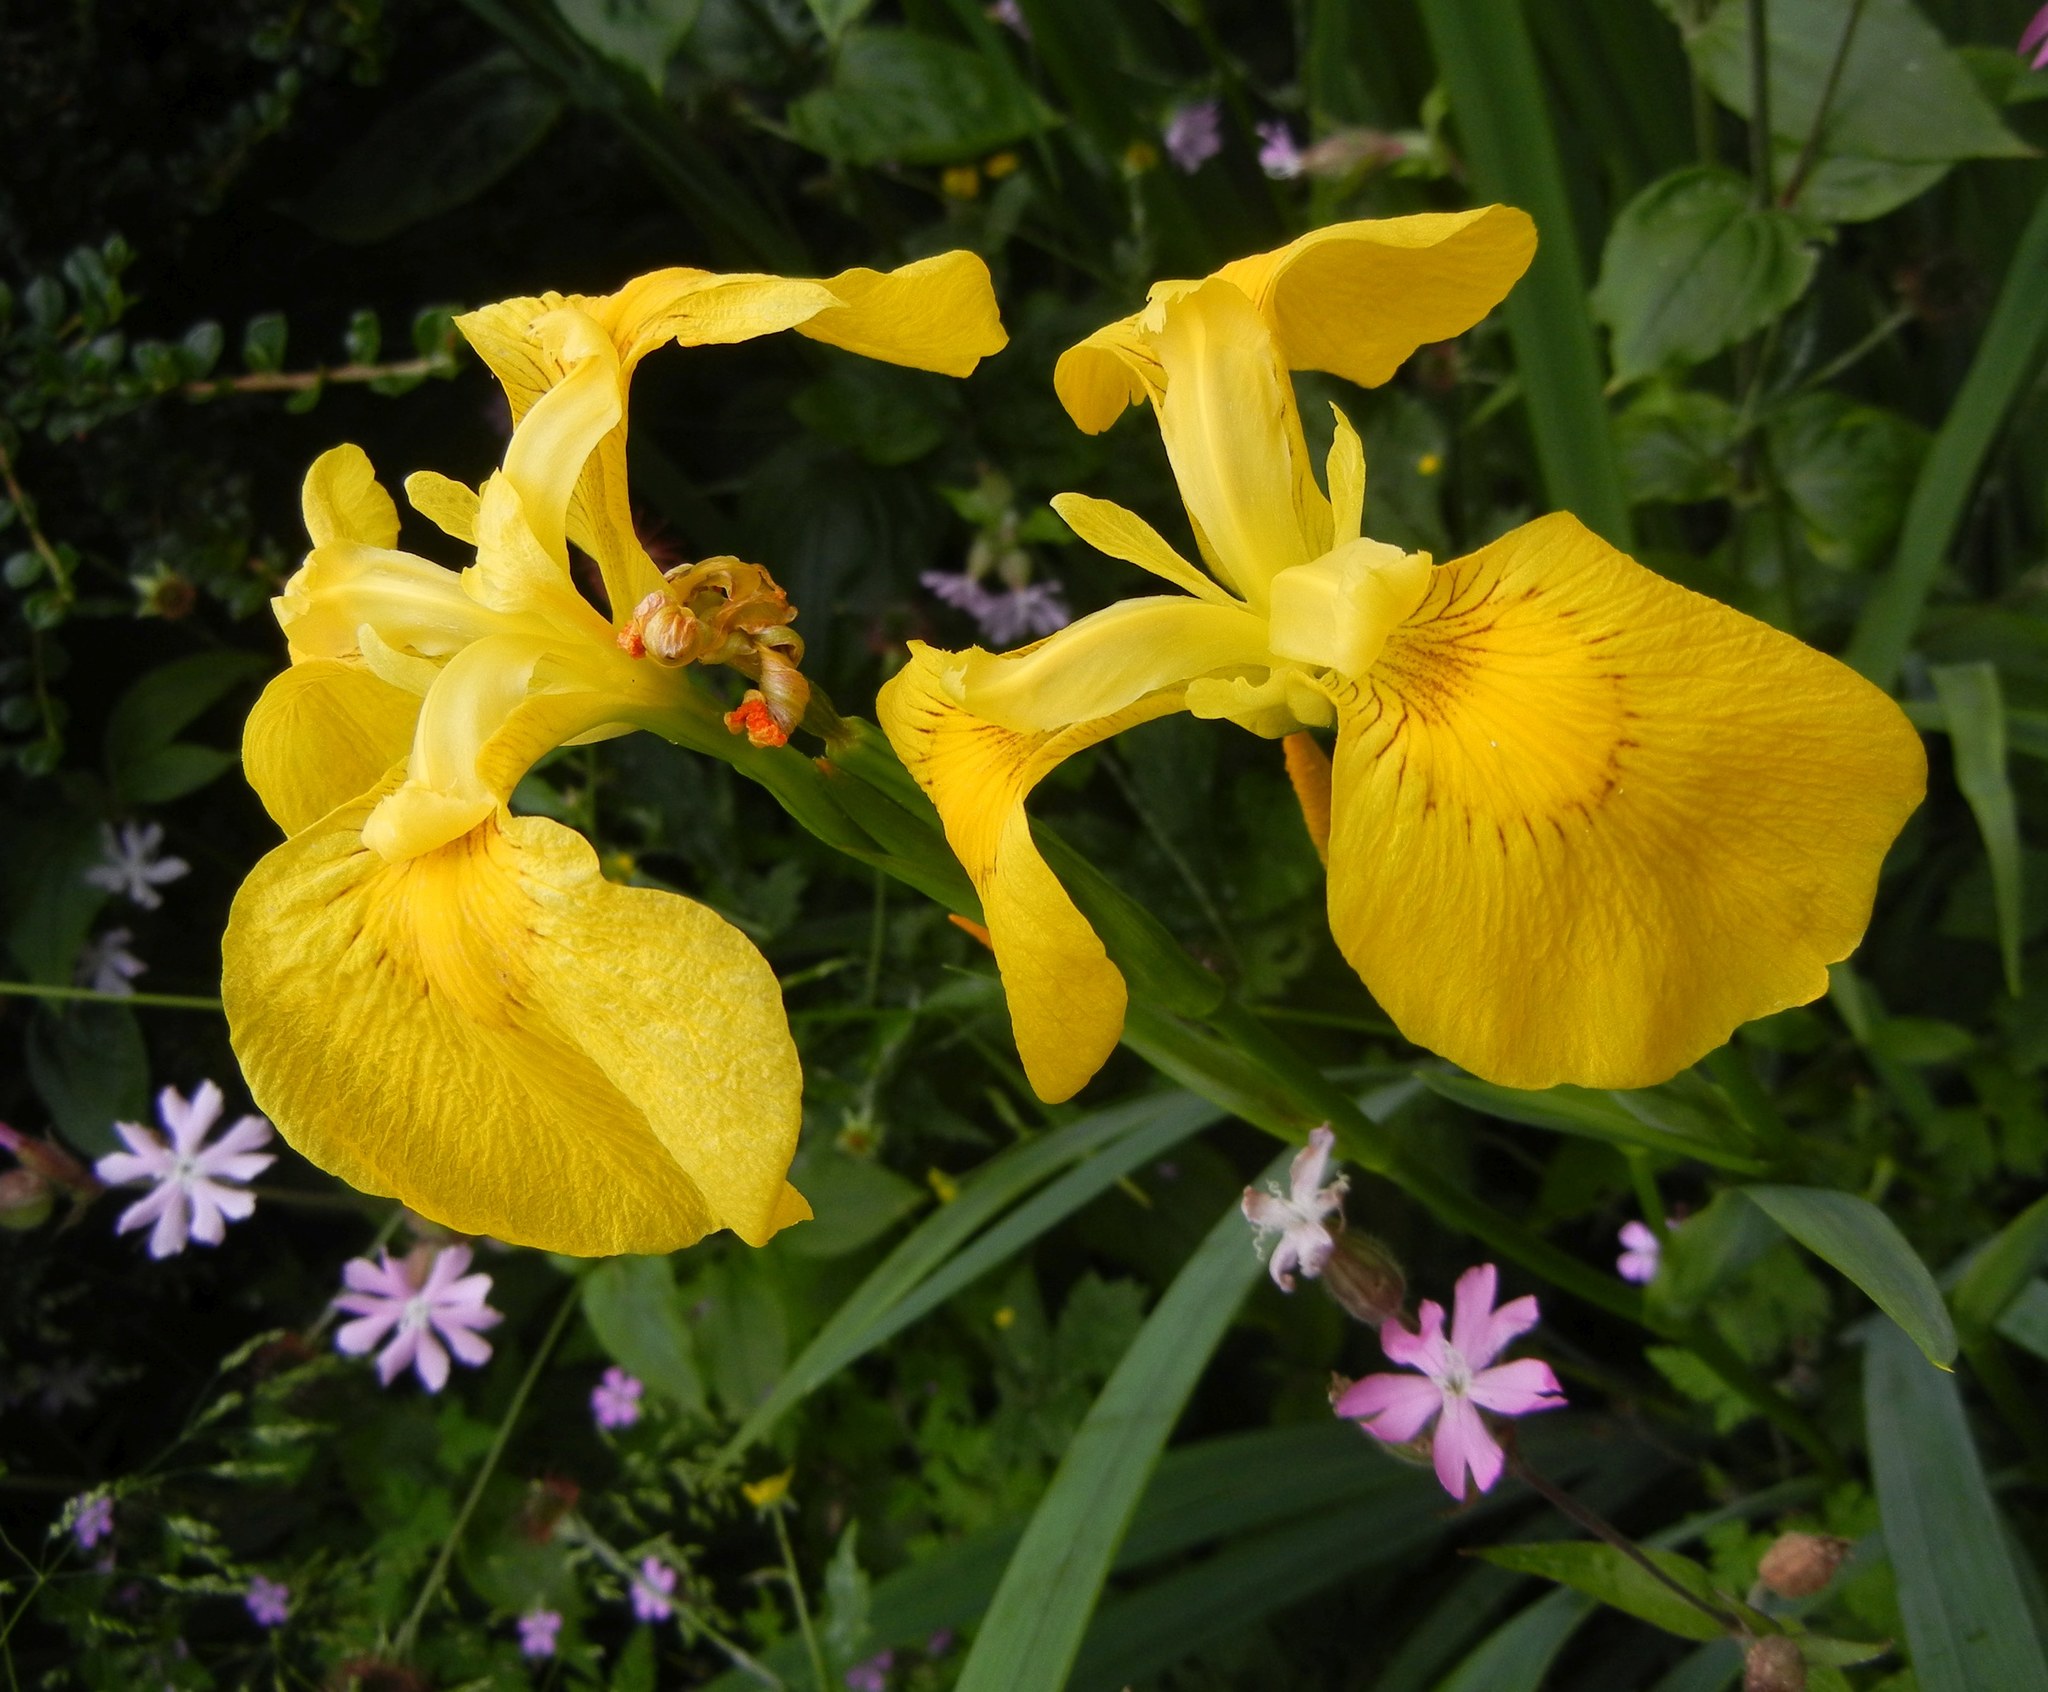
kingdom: Plantae
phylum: Tracheophyta
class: Liliopsida
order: Asparagales
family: Iridaceae
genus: Iris
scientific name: Iris pseudacorus
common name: Yellow flag
